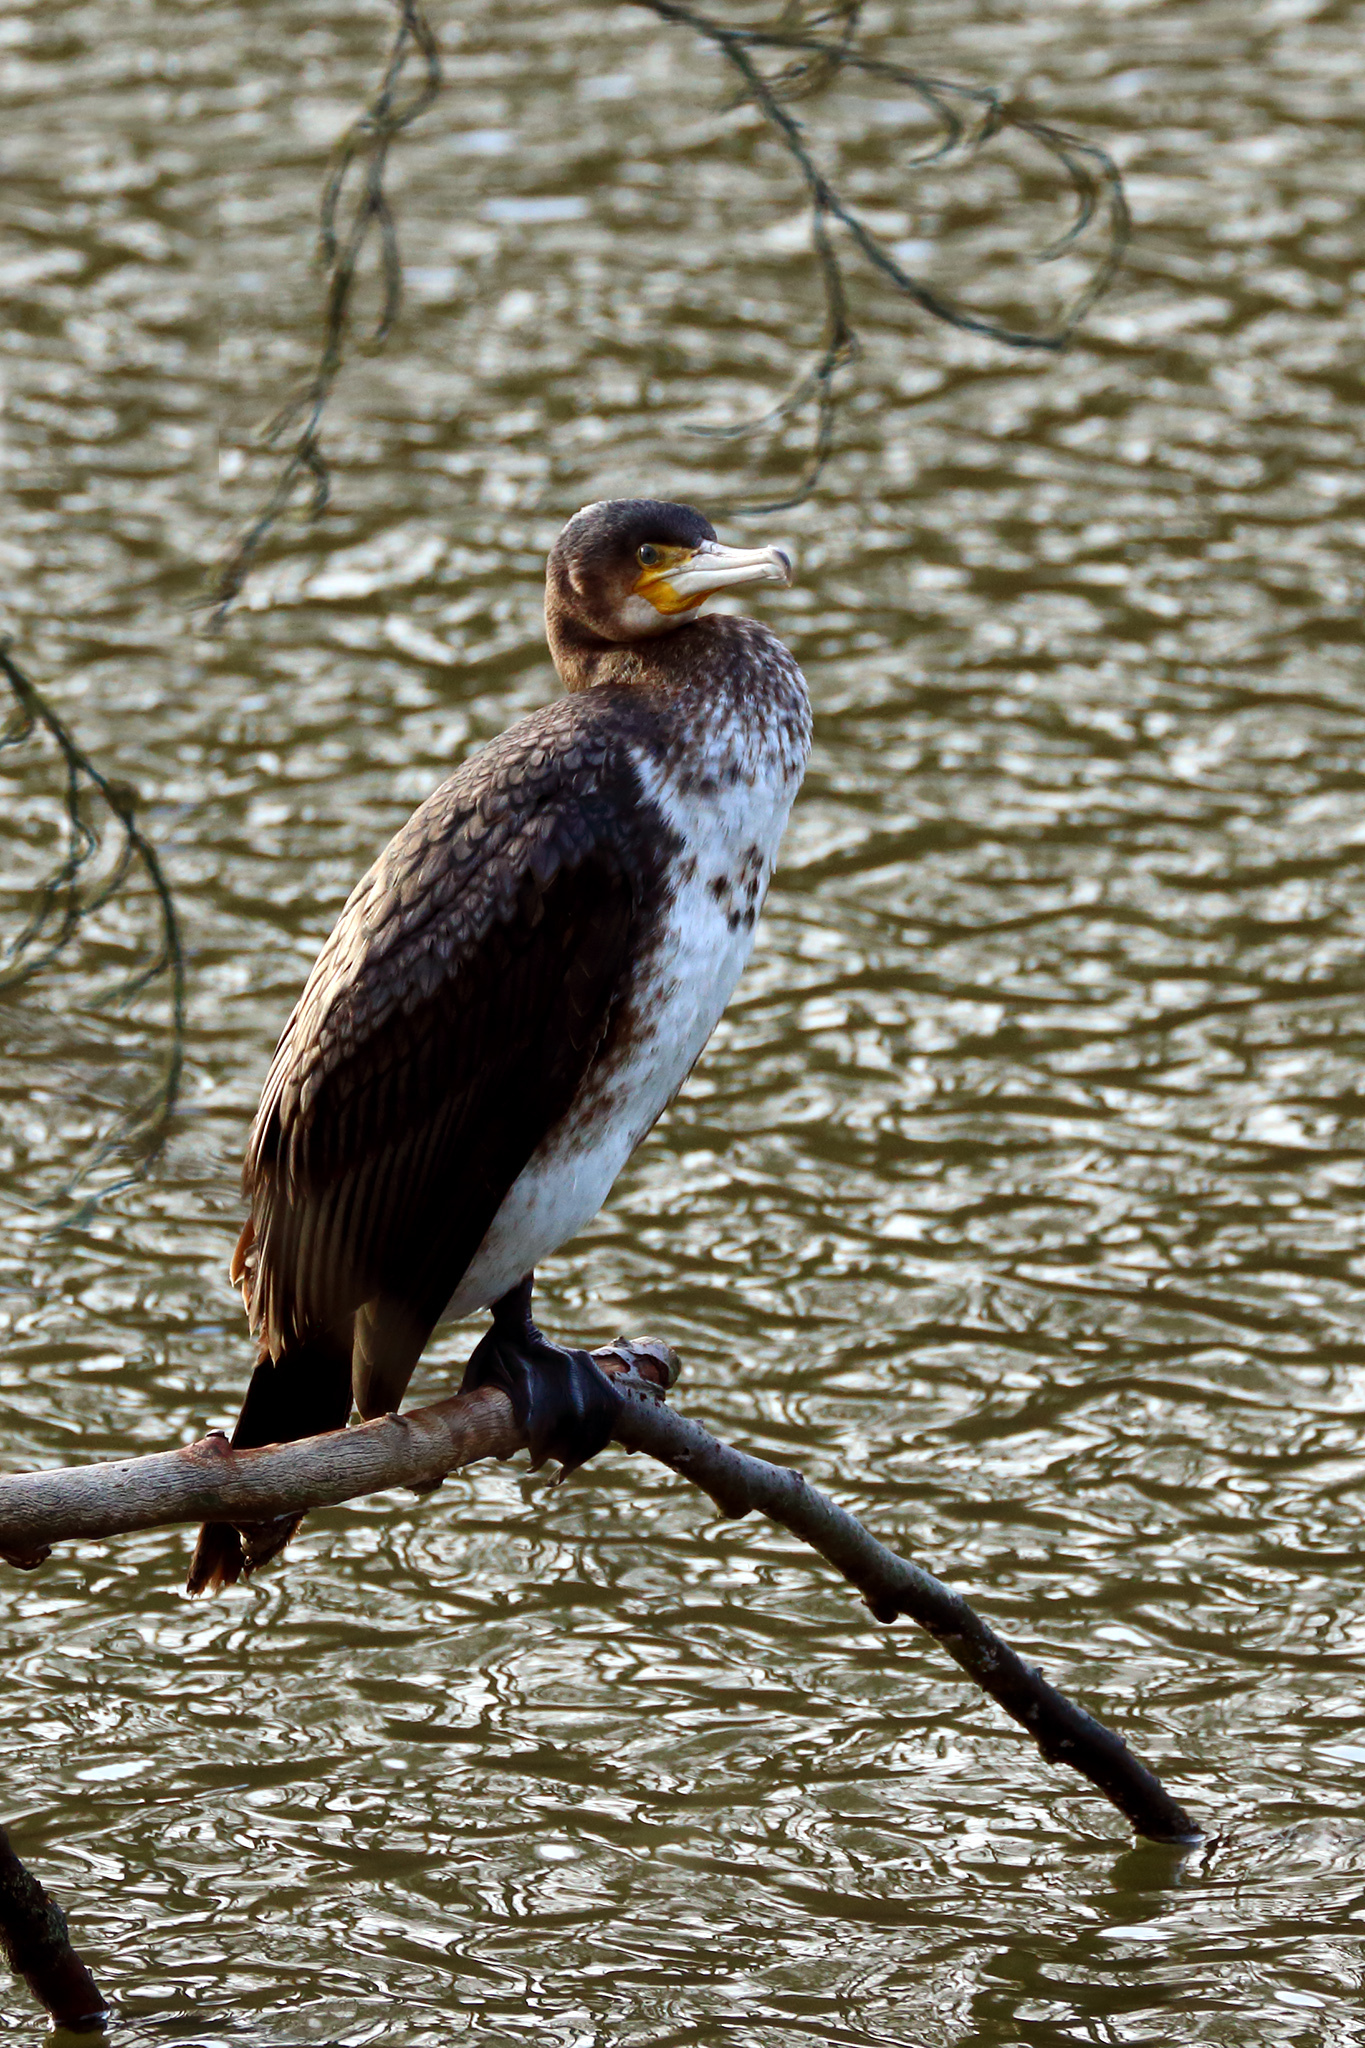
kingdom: Animalia
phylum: Chordata
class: Aves
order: Suliformes
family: Phalacrocoracidae
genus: Phalacrocorax
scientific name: Phalacrocorax carbo
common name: Great cormorant
